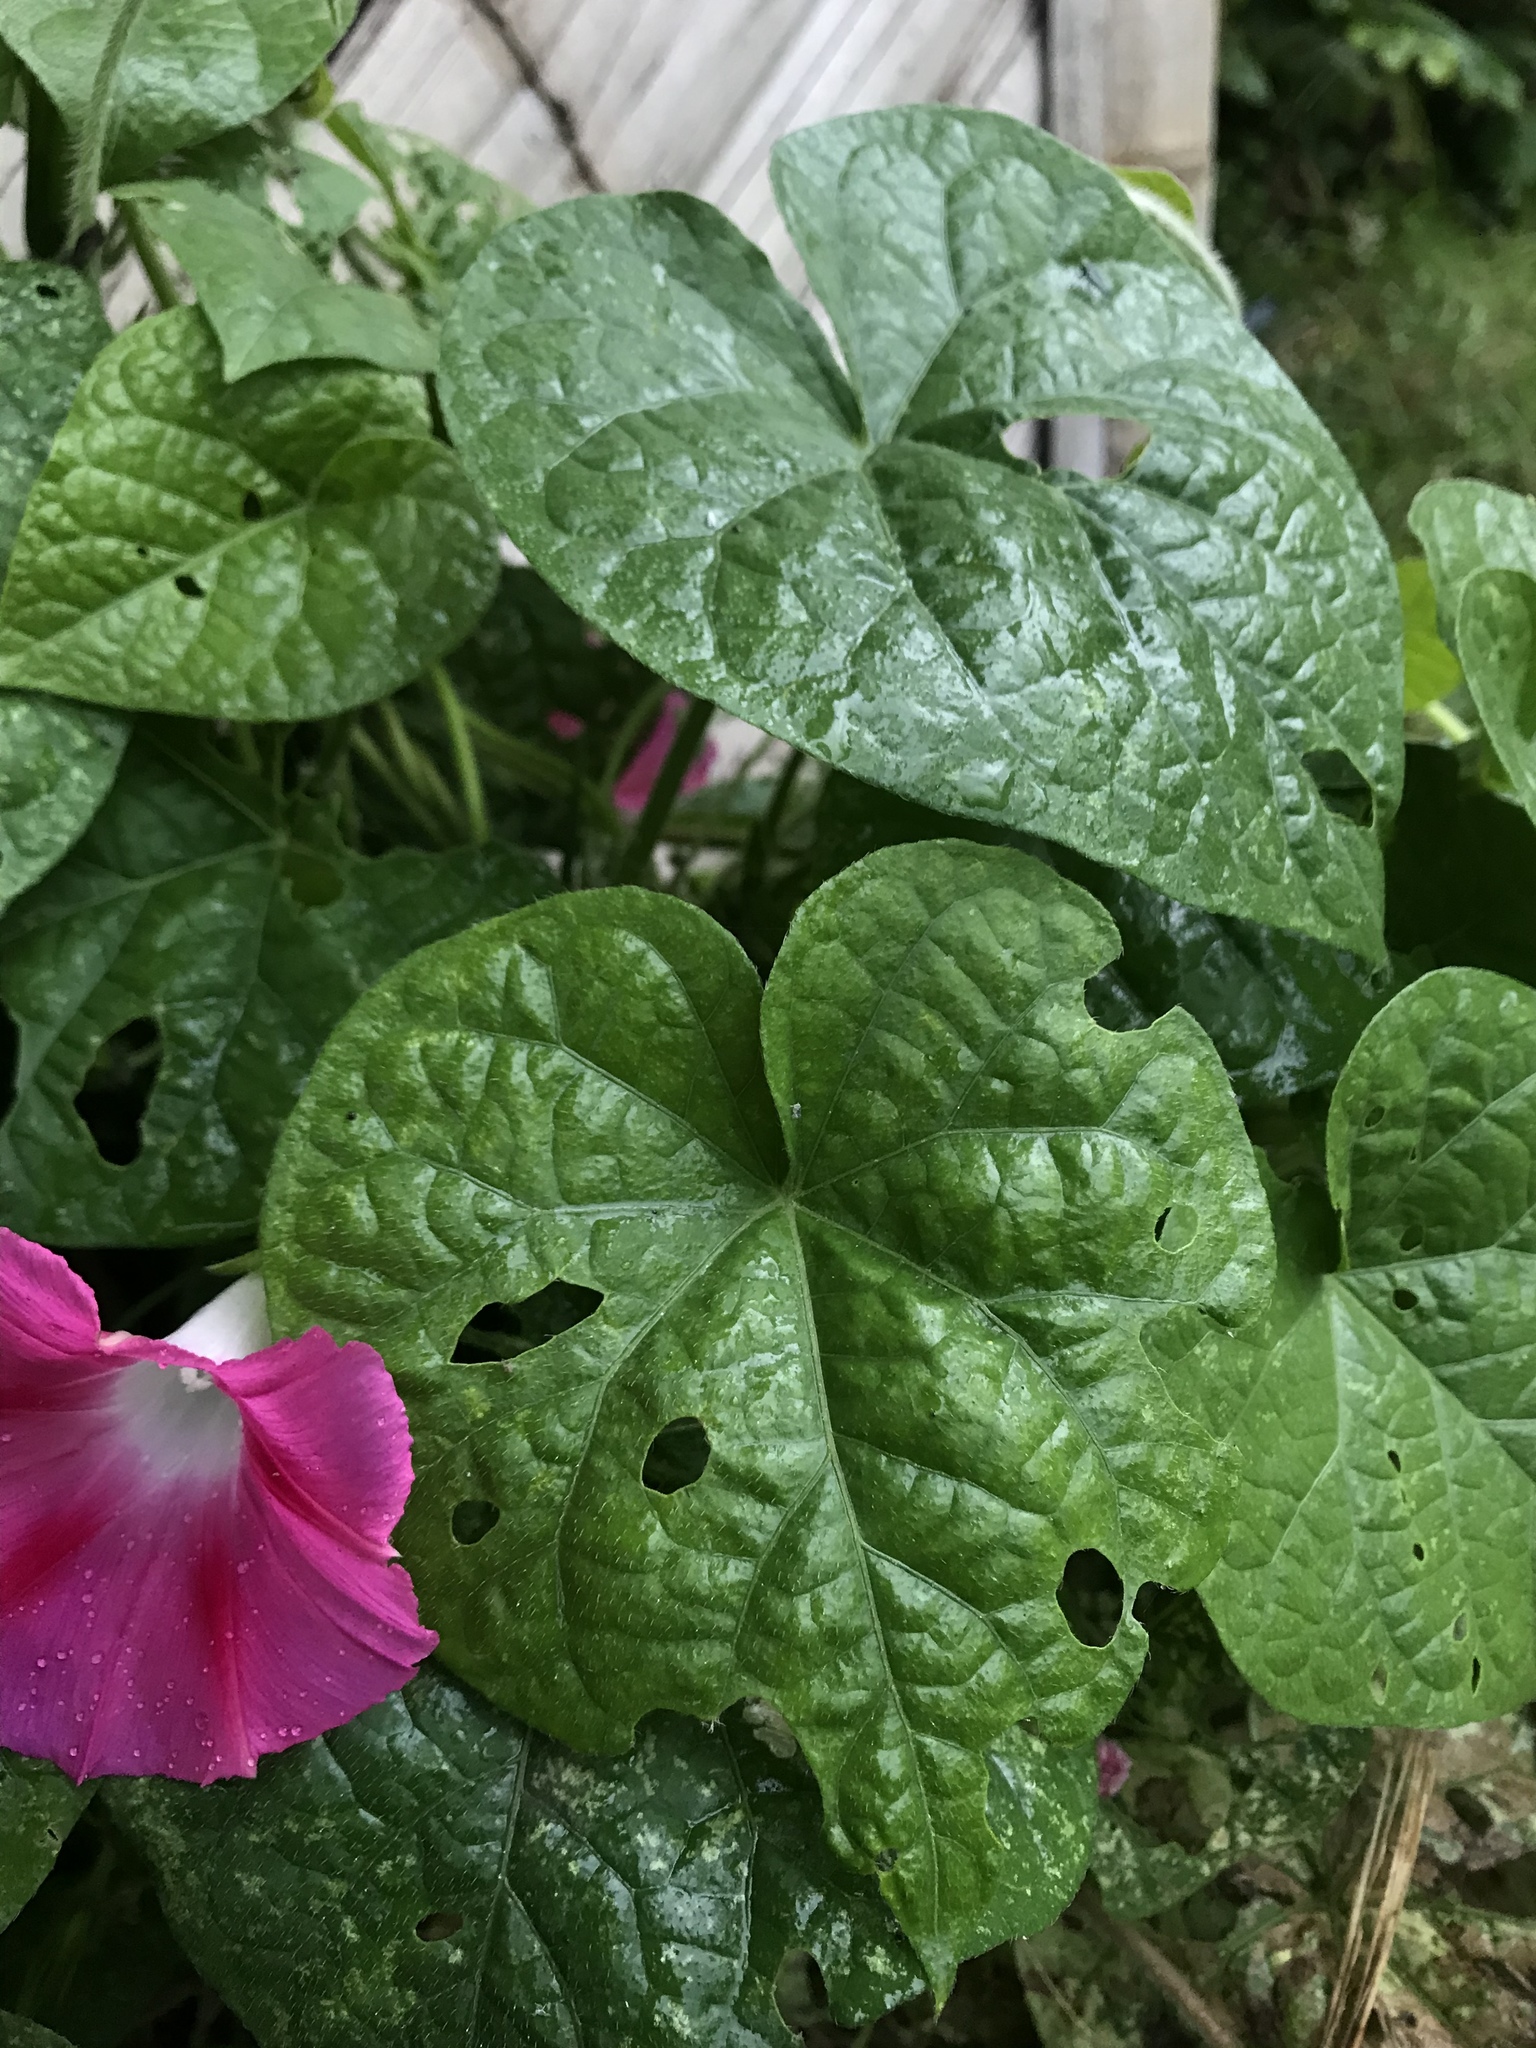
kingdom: Plantae
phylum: Tracheophyta
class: Magnoliopsida
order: Solanales
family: Convolvulaceae
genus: Ipomoea
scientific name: Ipomoea purpurea
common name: Common morning-glory
